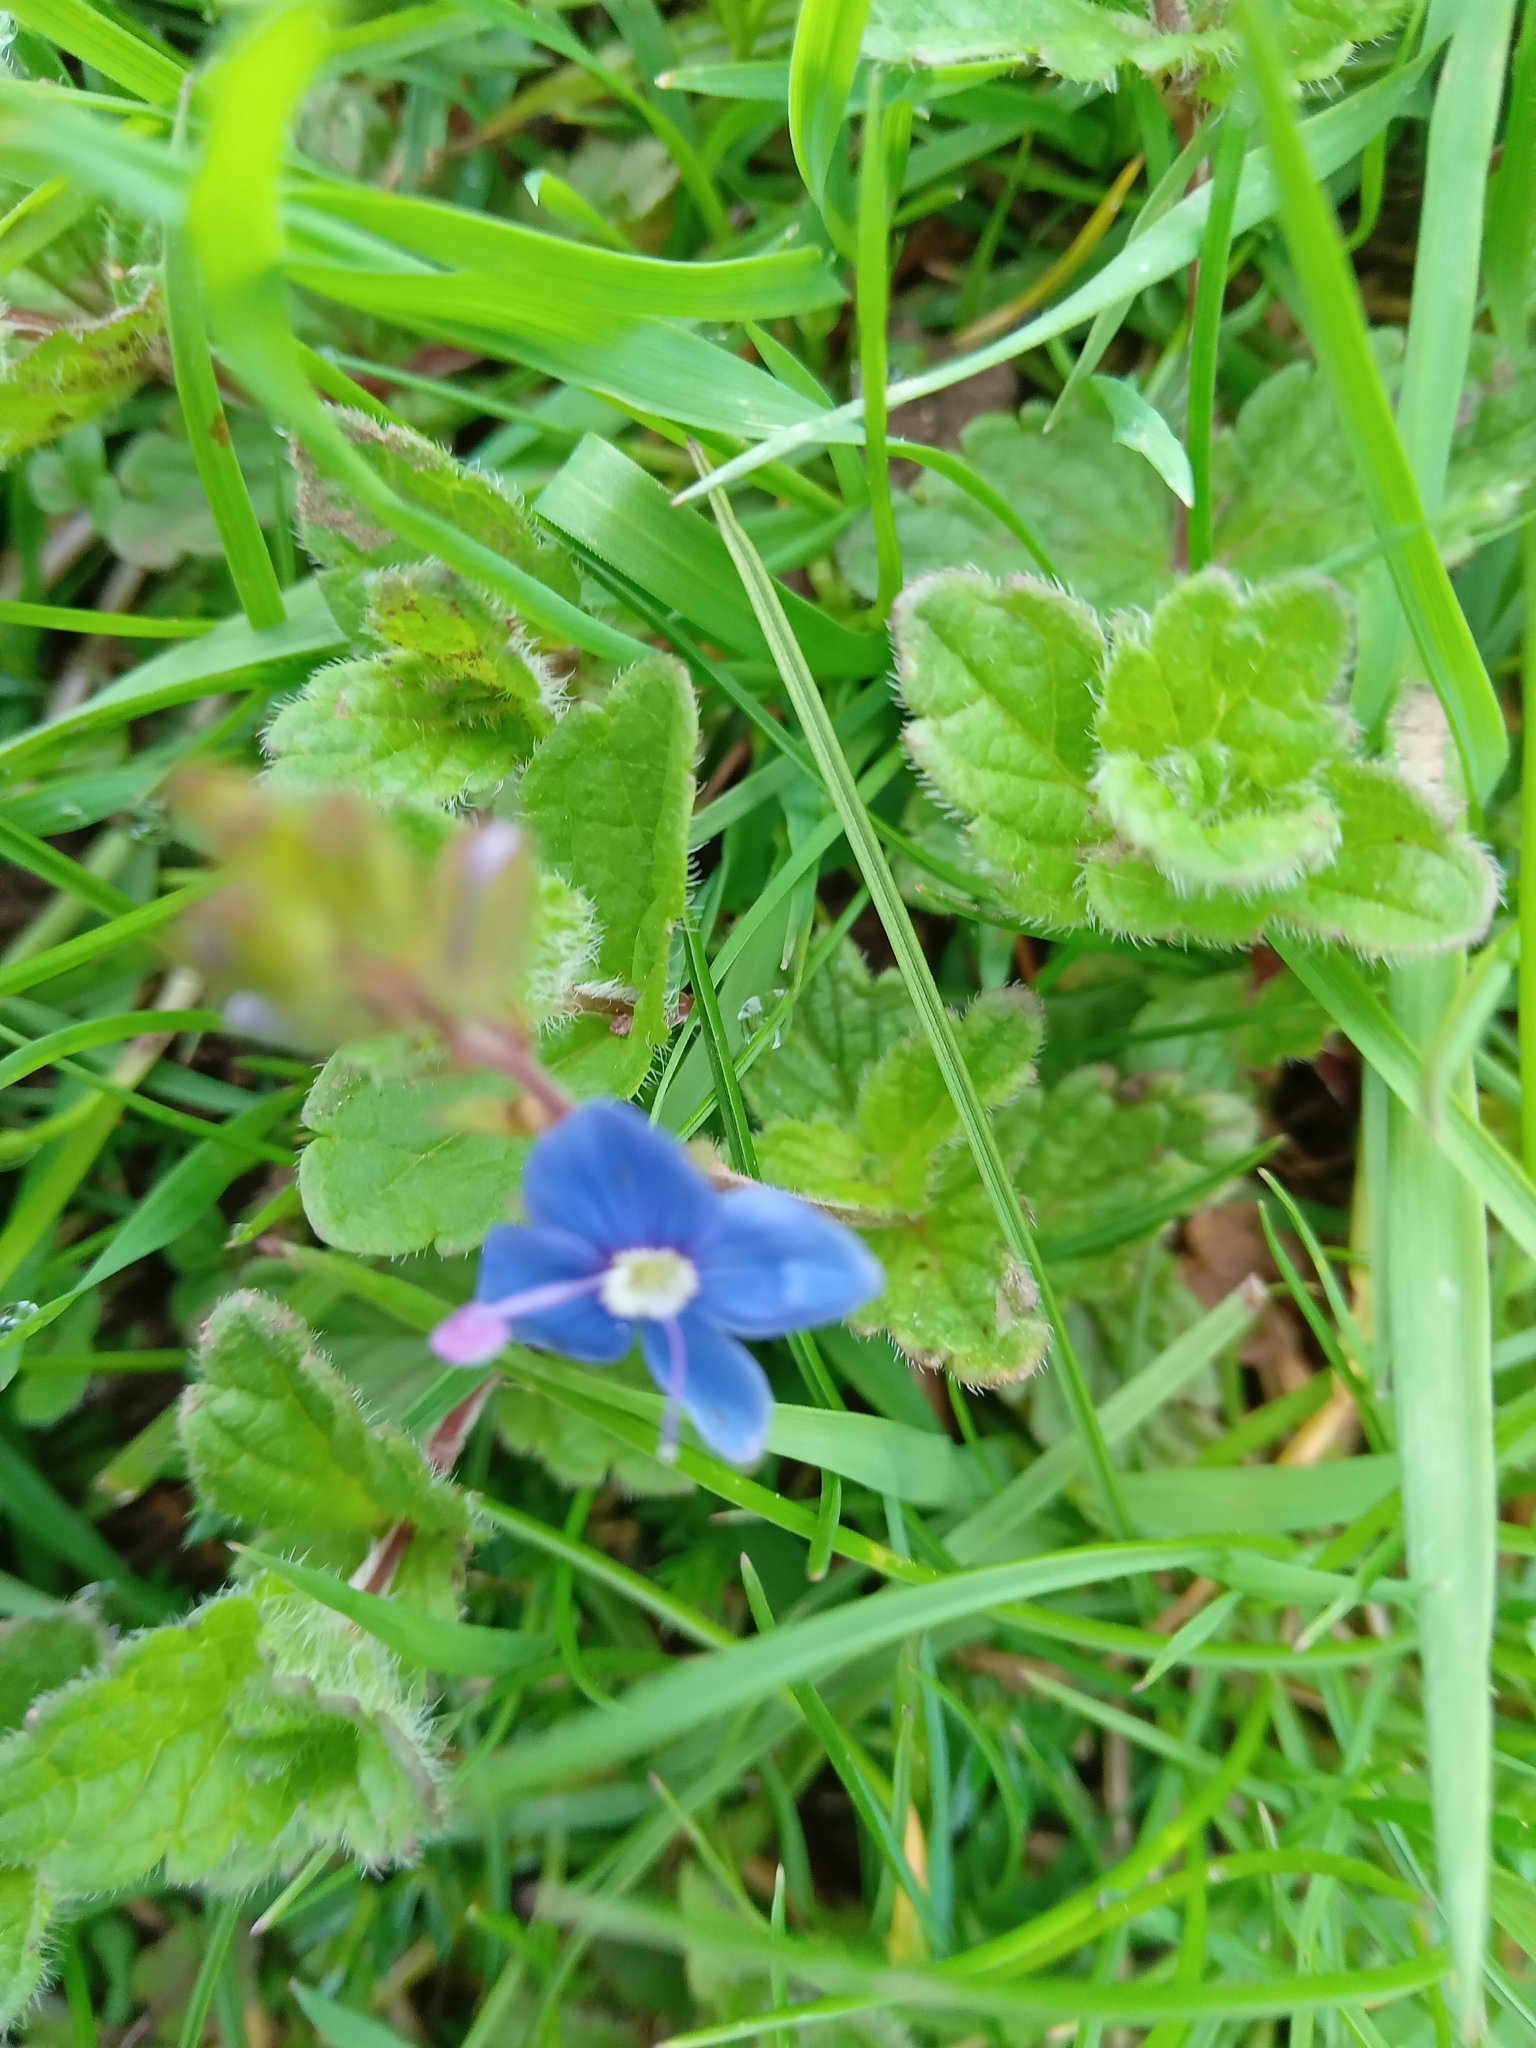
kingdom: Plantae
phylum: Tracheophyta
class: Magnoliopsida
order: Lamiales
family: Plantaginaceae
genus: Veronica
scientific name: Veronica chamaedrys
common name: Germander speedwell
